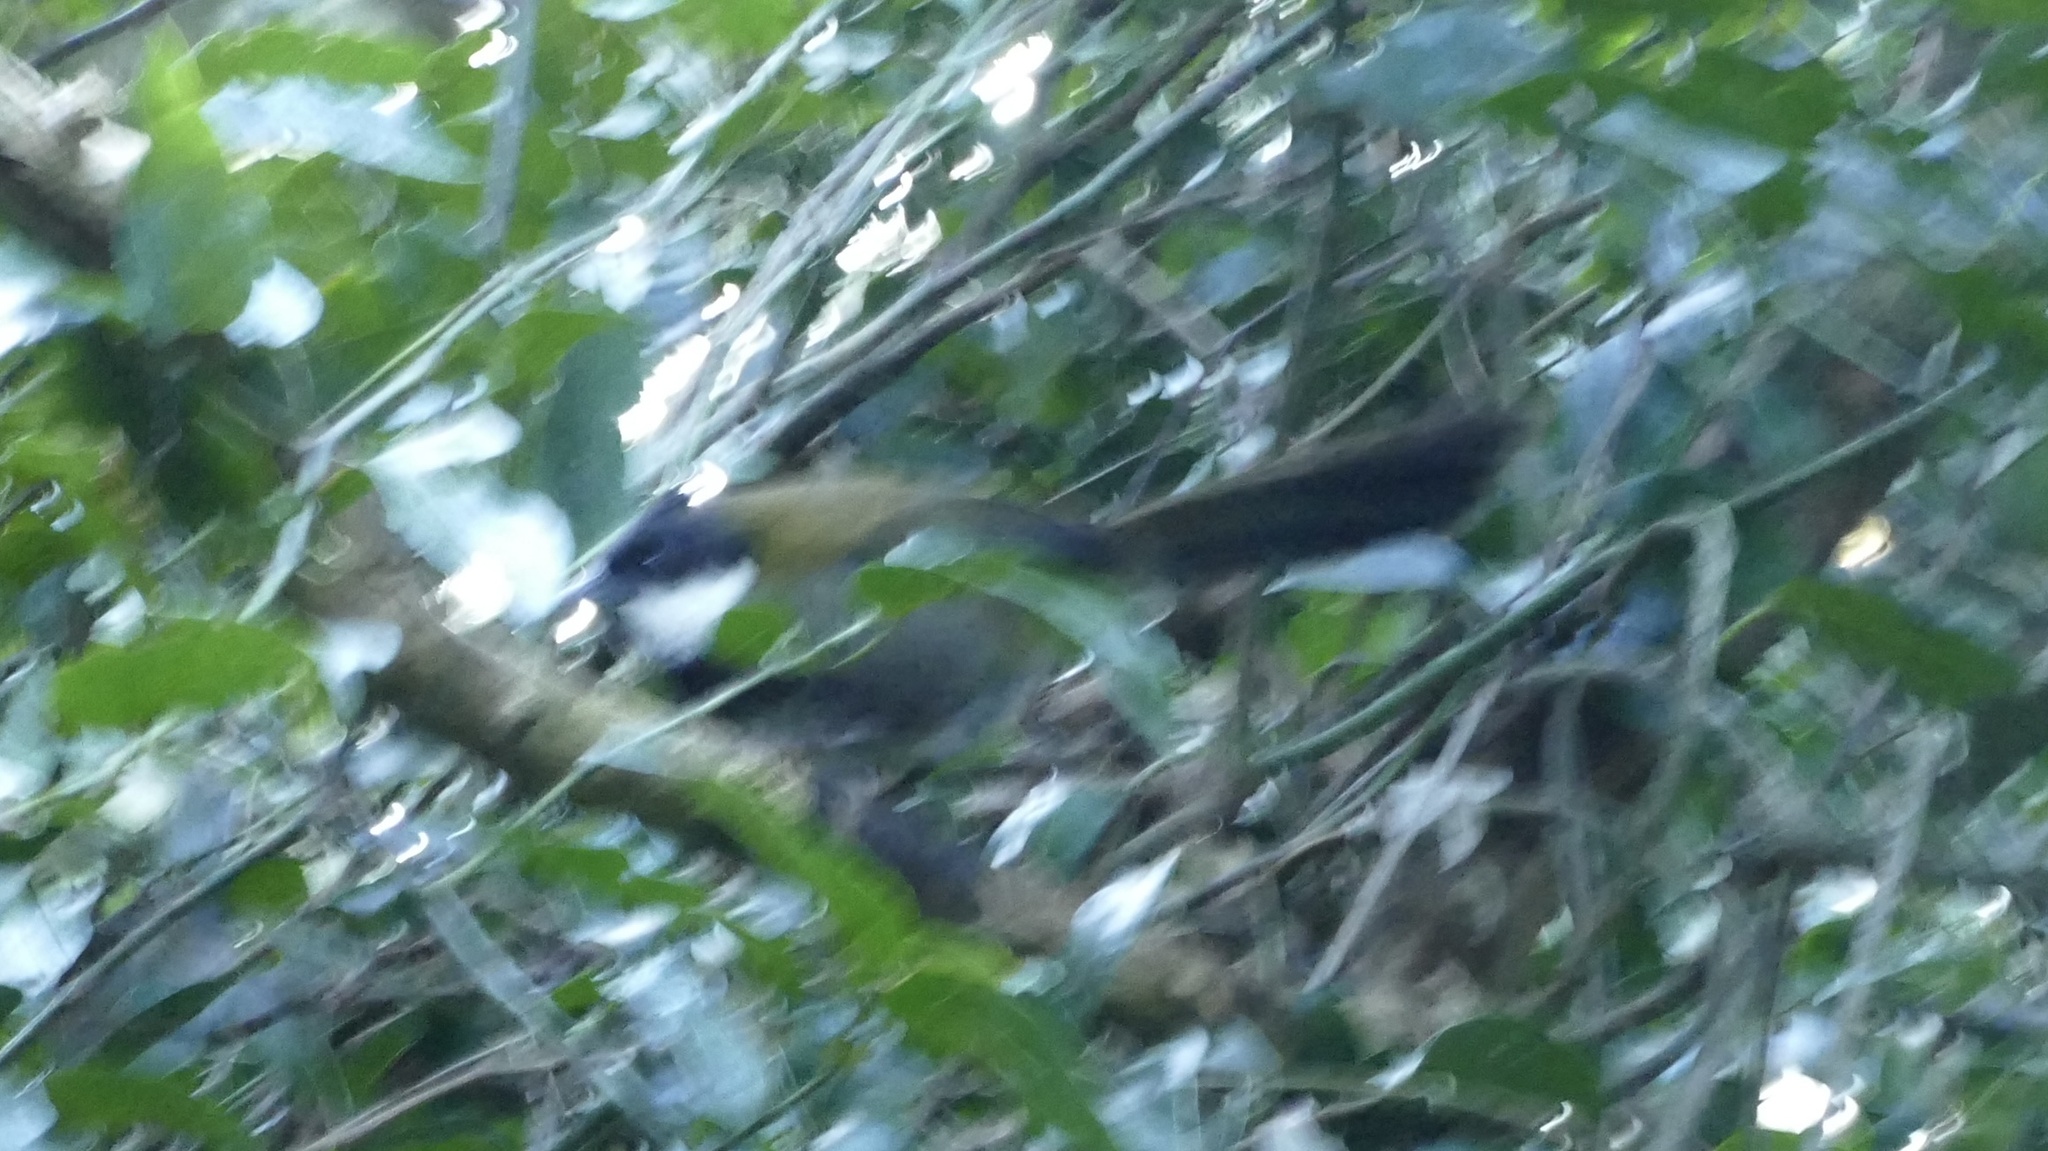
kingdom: Animalia
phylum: Chordata
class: Aves
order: Passeriformes
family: Psophodidae
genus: Psophodes
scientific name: Psophodes olivaceus
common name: Eastern whipbird
